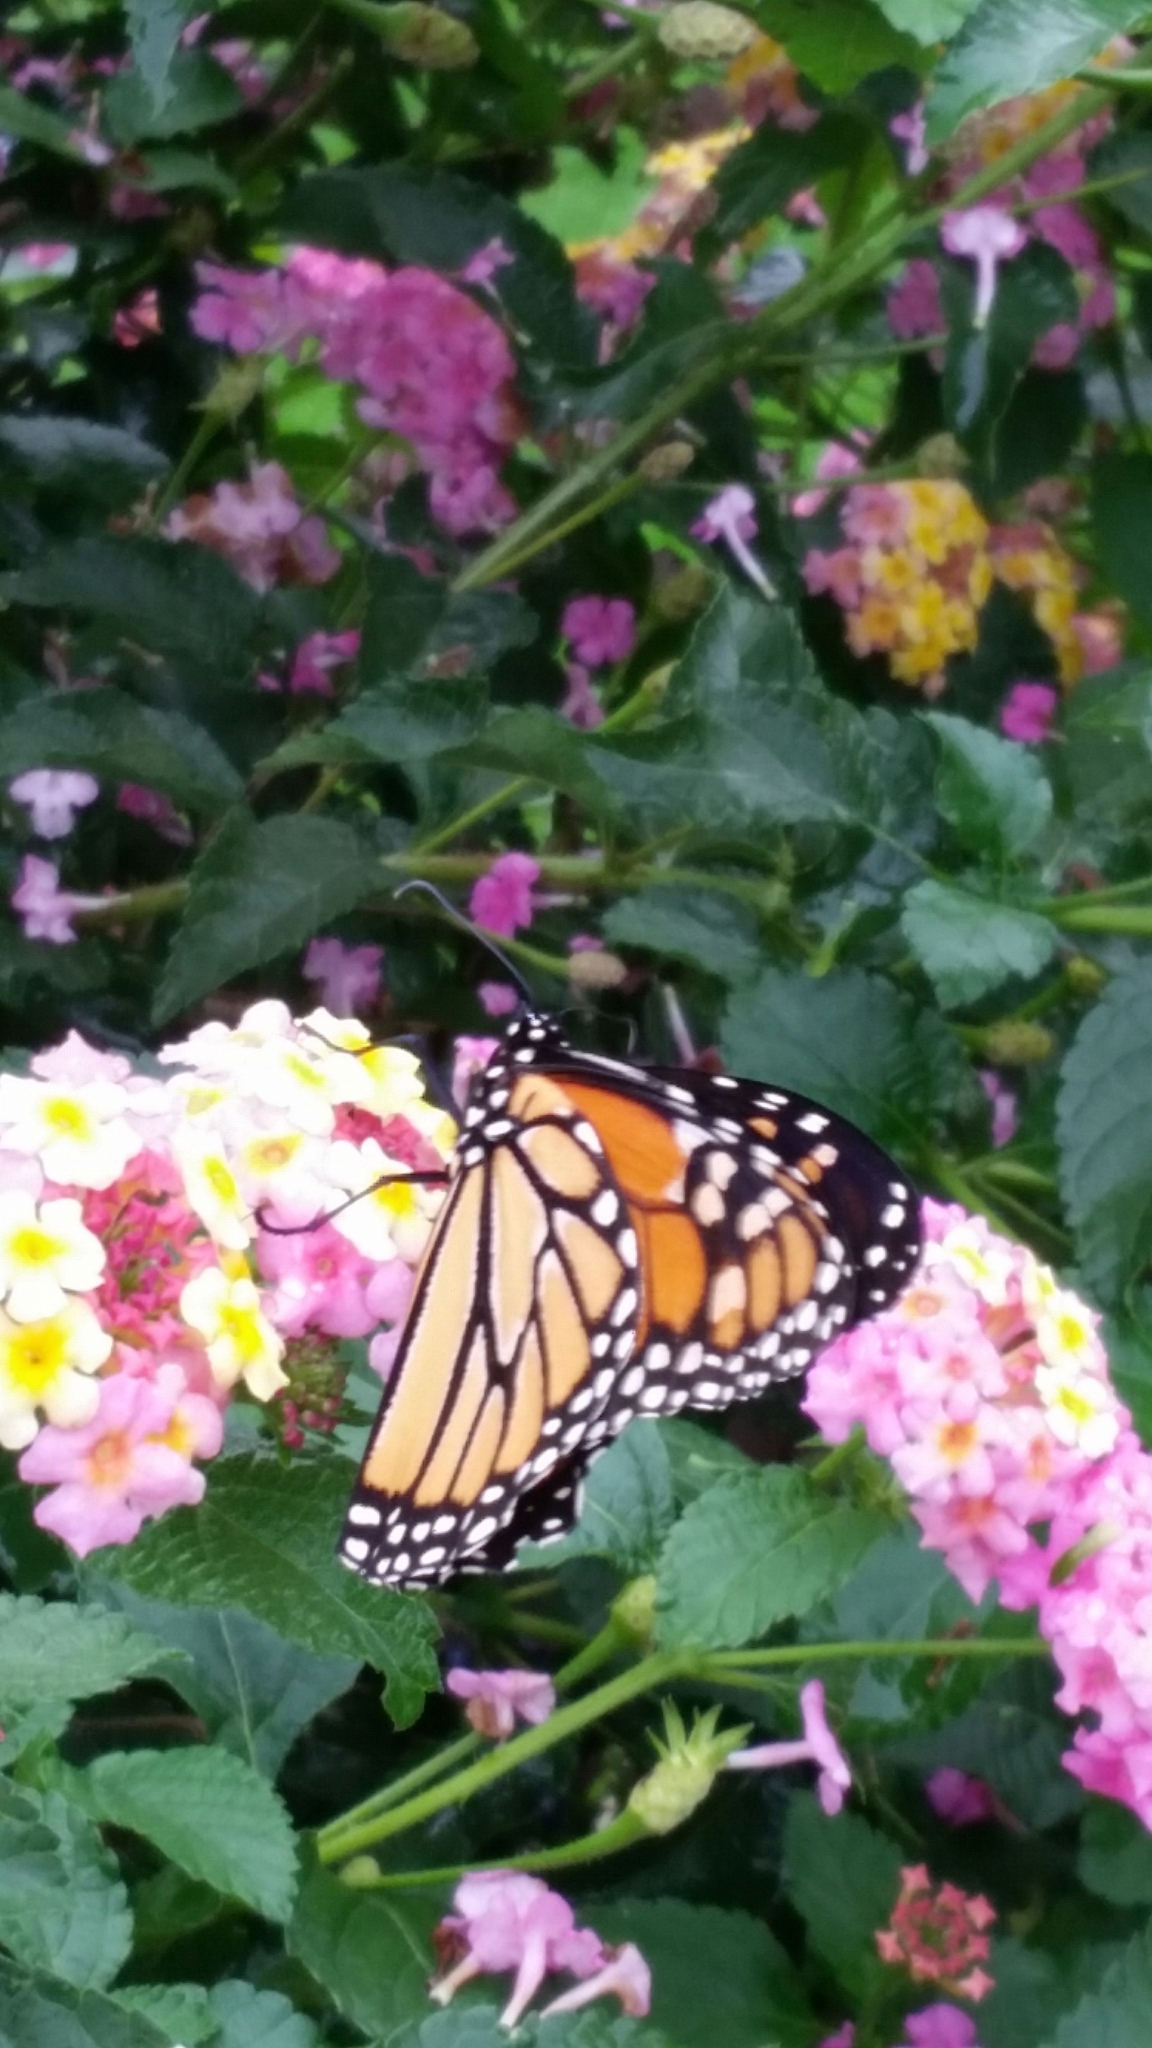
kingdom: Animalia
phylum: Arthropoda
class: Insecta
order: Lepidoptera
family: Nymphalidae
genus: Danaus
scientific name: Danaus plexippus
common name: Monarch
